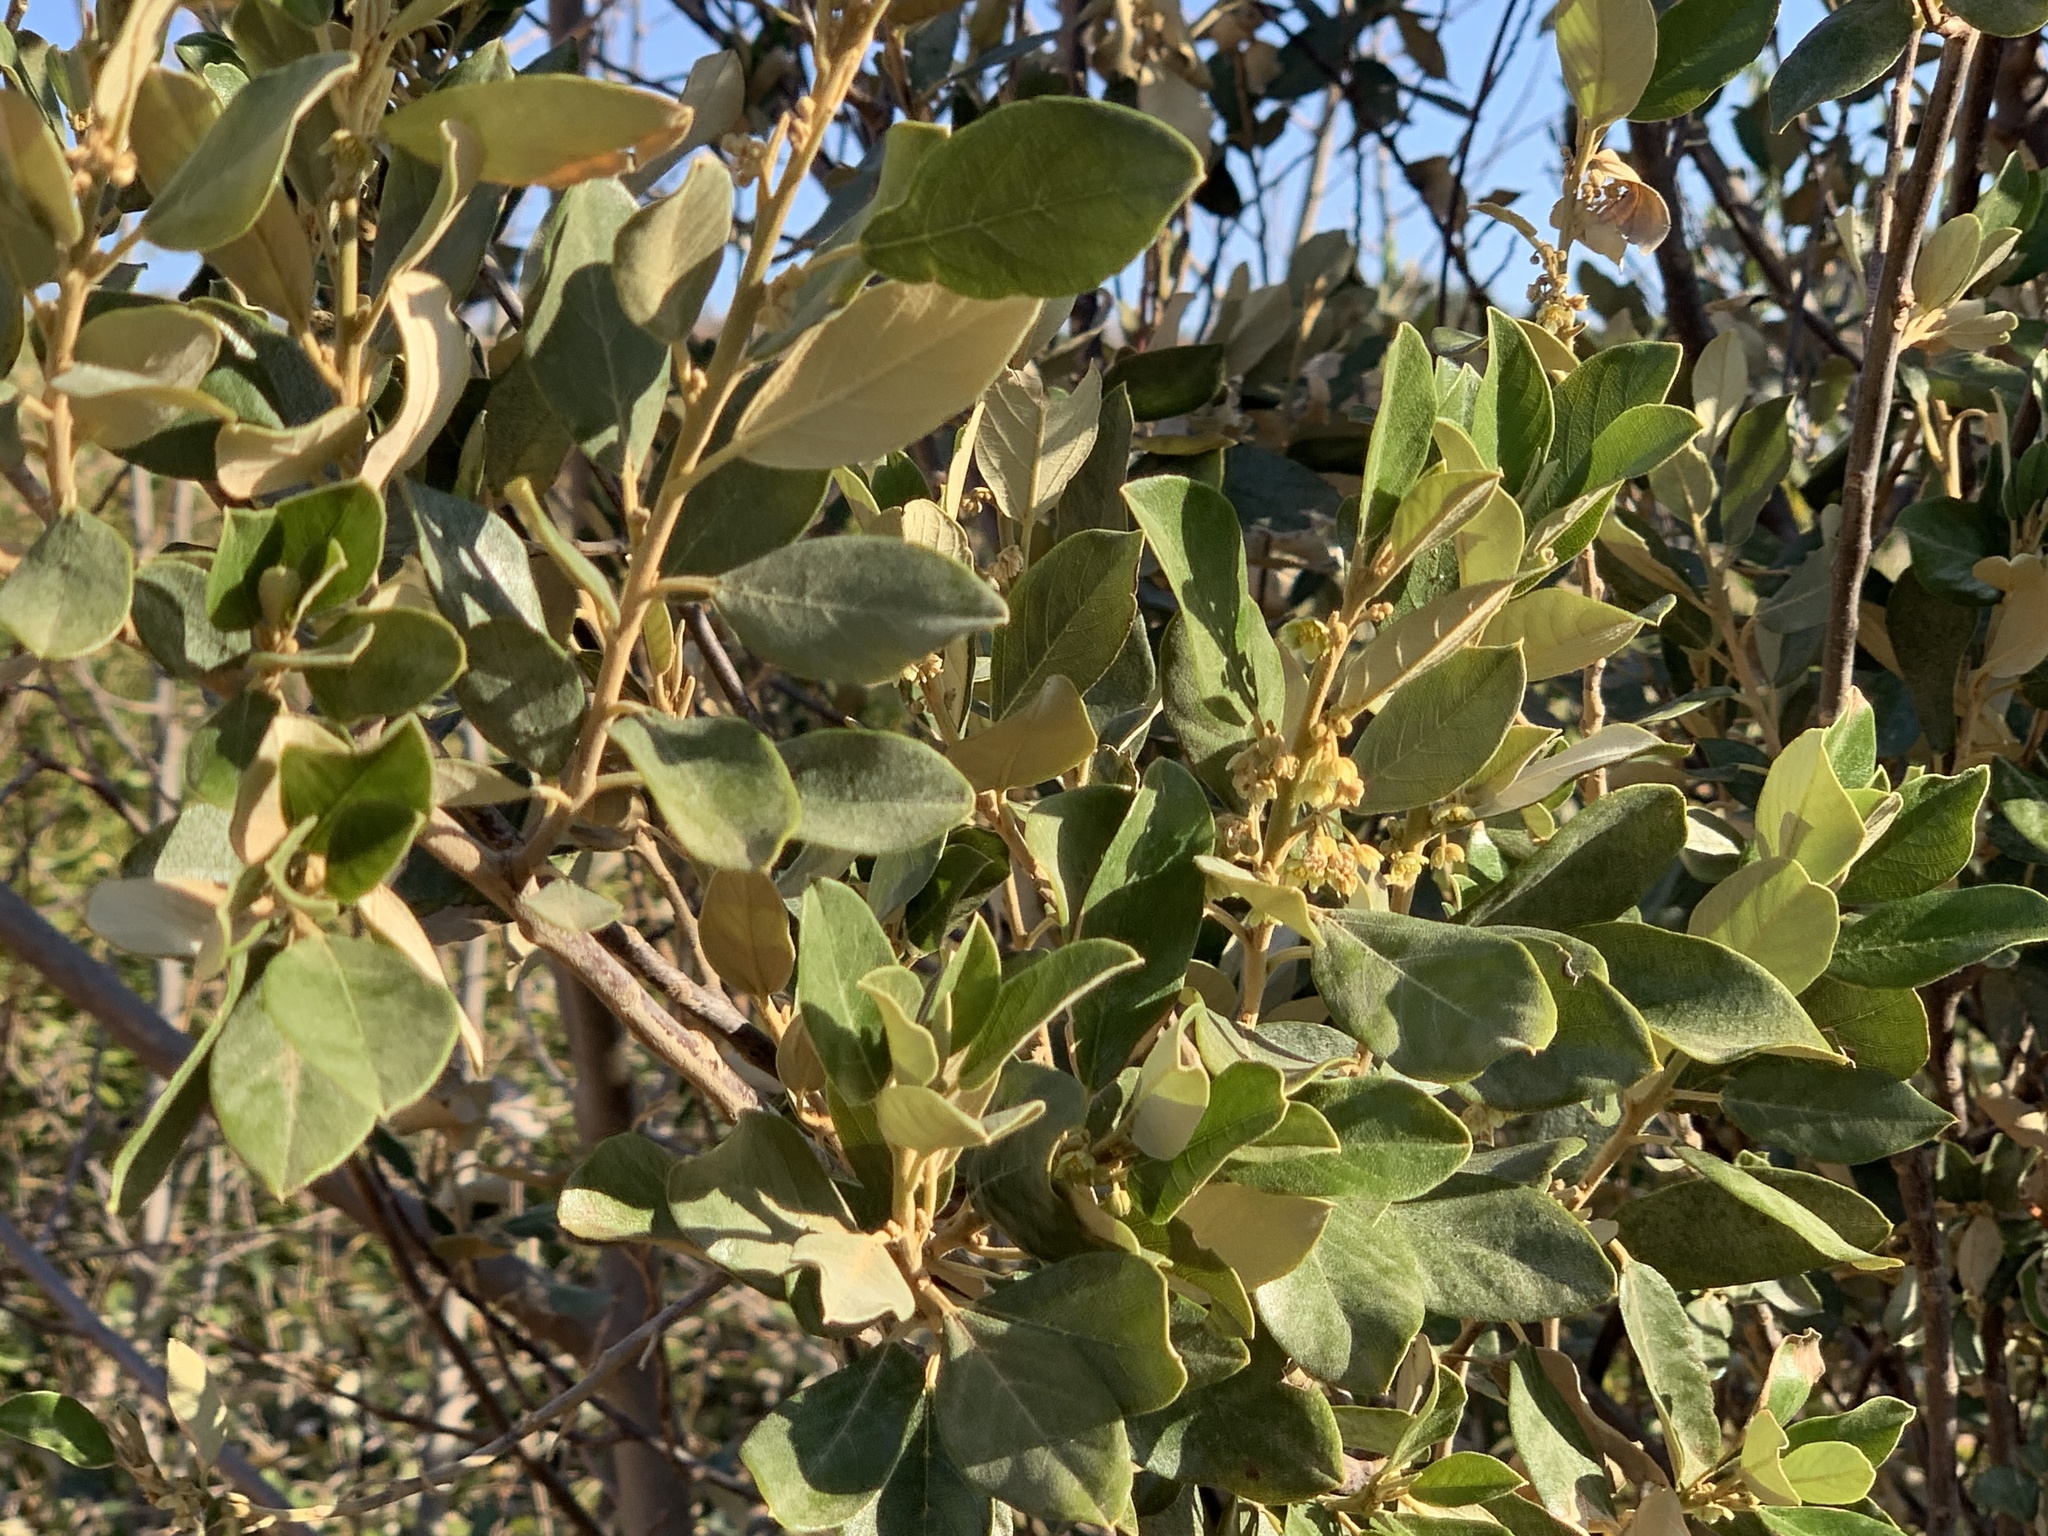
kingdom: Plantae
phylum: Tracheophyta
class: Magnoliopsida
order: Malpighiales
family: Achariaceae
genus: Kiggelaria
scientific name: Kiggelaria africana
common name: Wild peach
